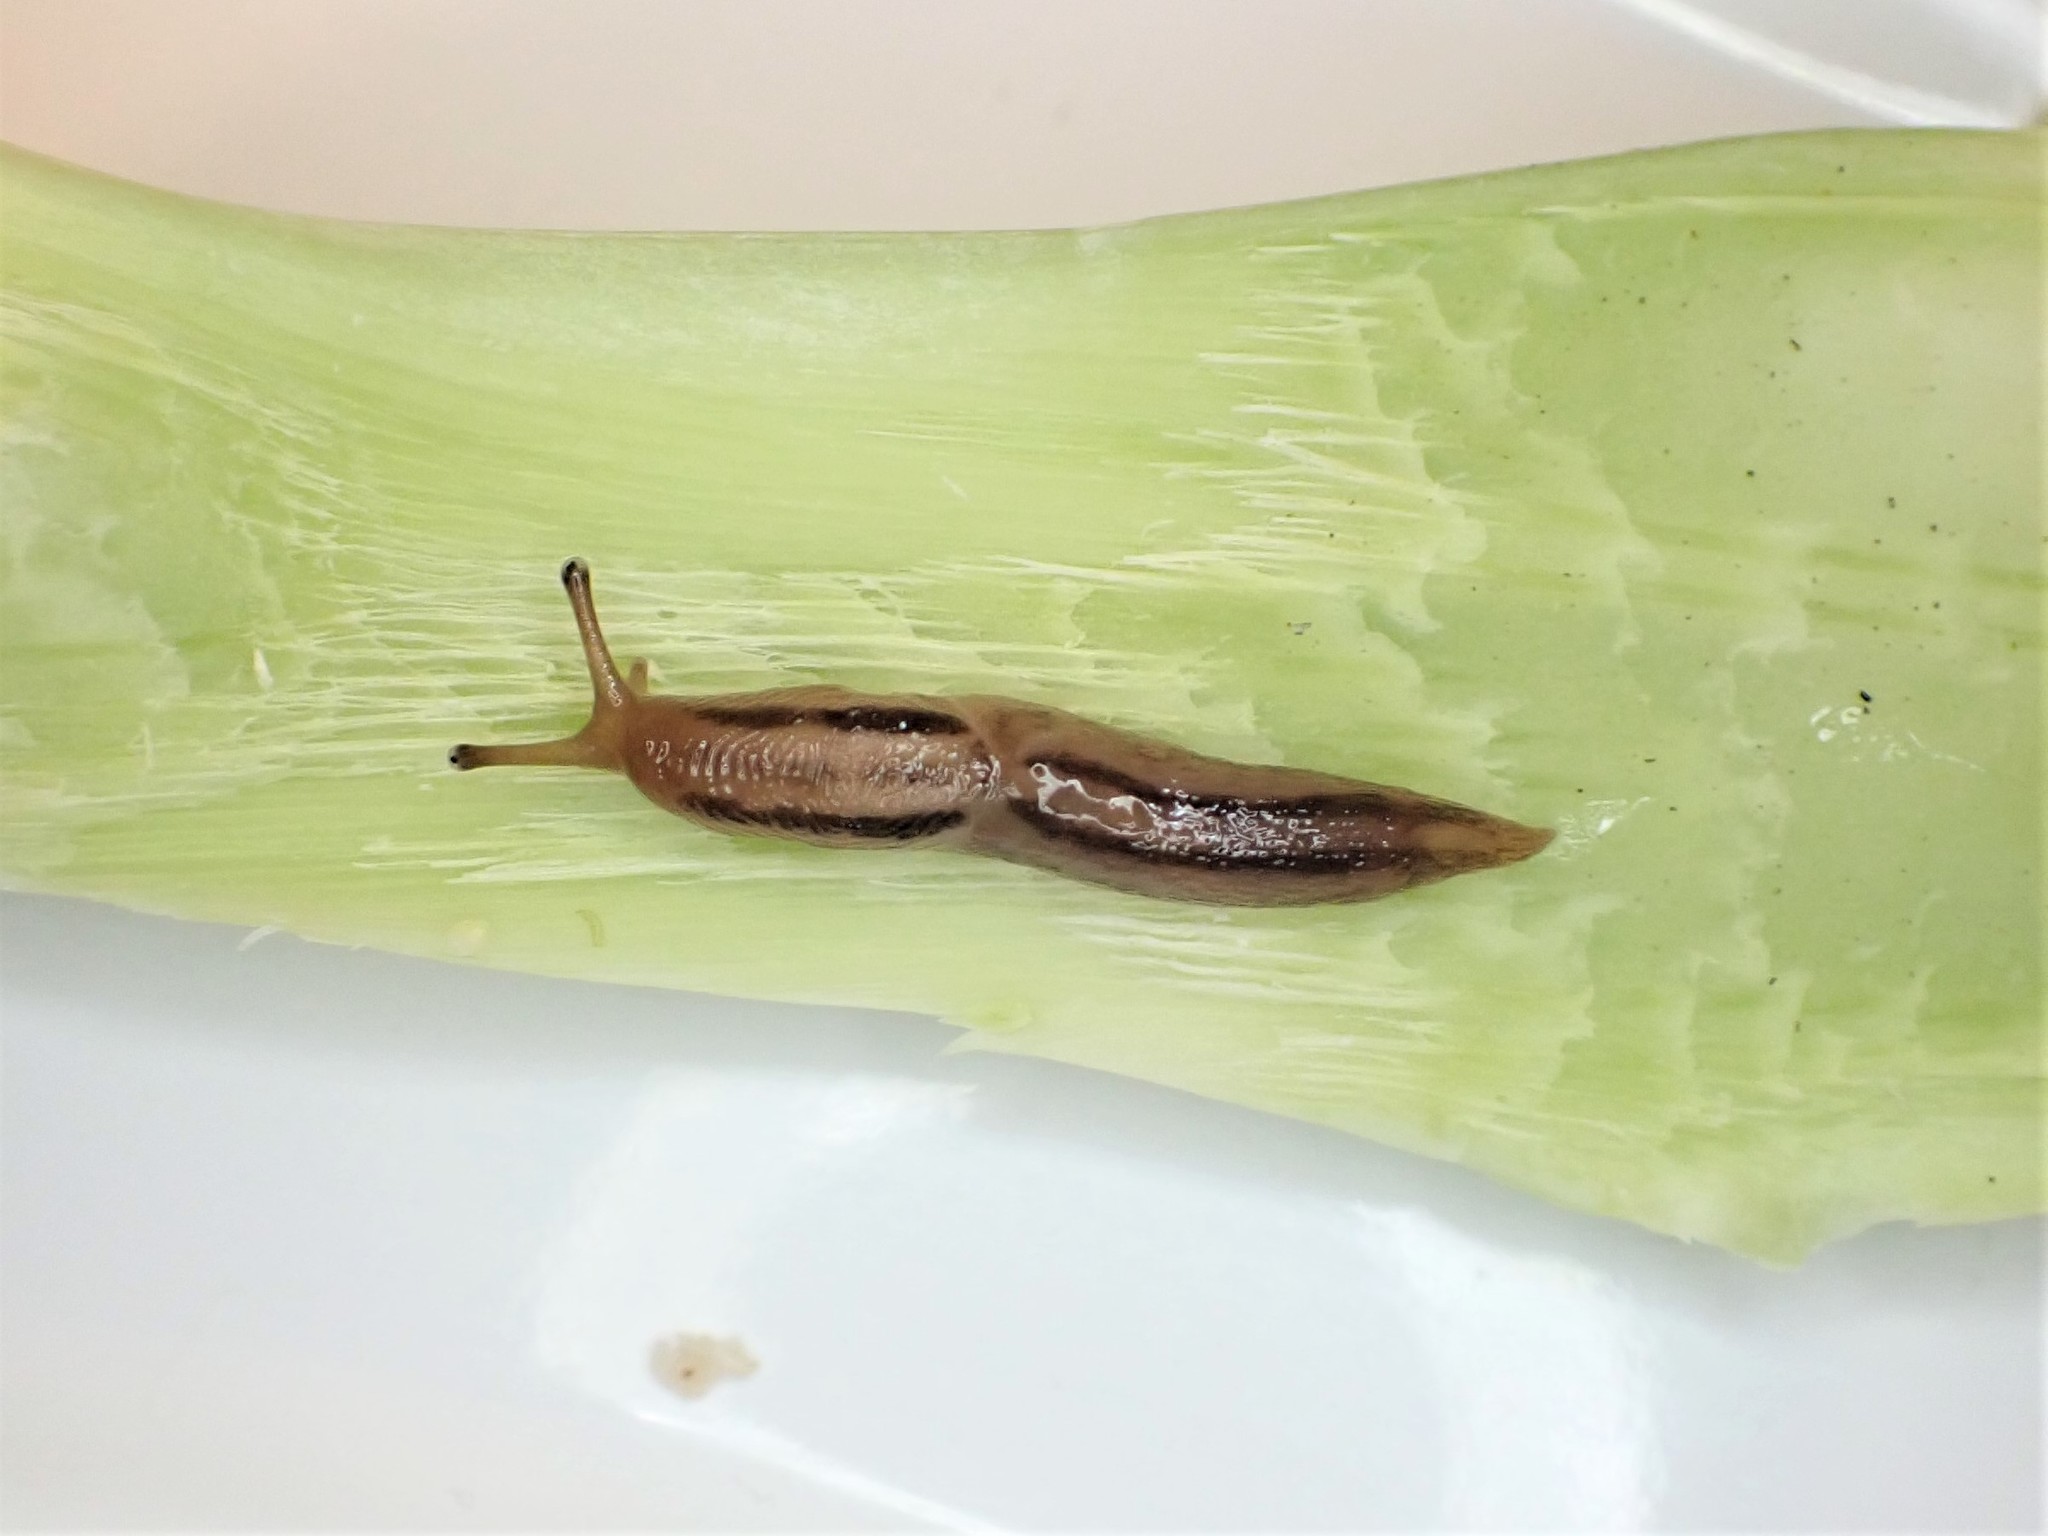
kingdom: Animalia
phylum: Mollusca
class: Gastropoda
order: Stylommatophora
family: Limacidae
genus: Ambigolimax
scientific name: Ambigolimax
